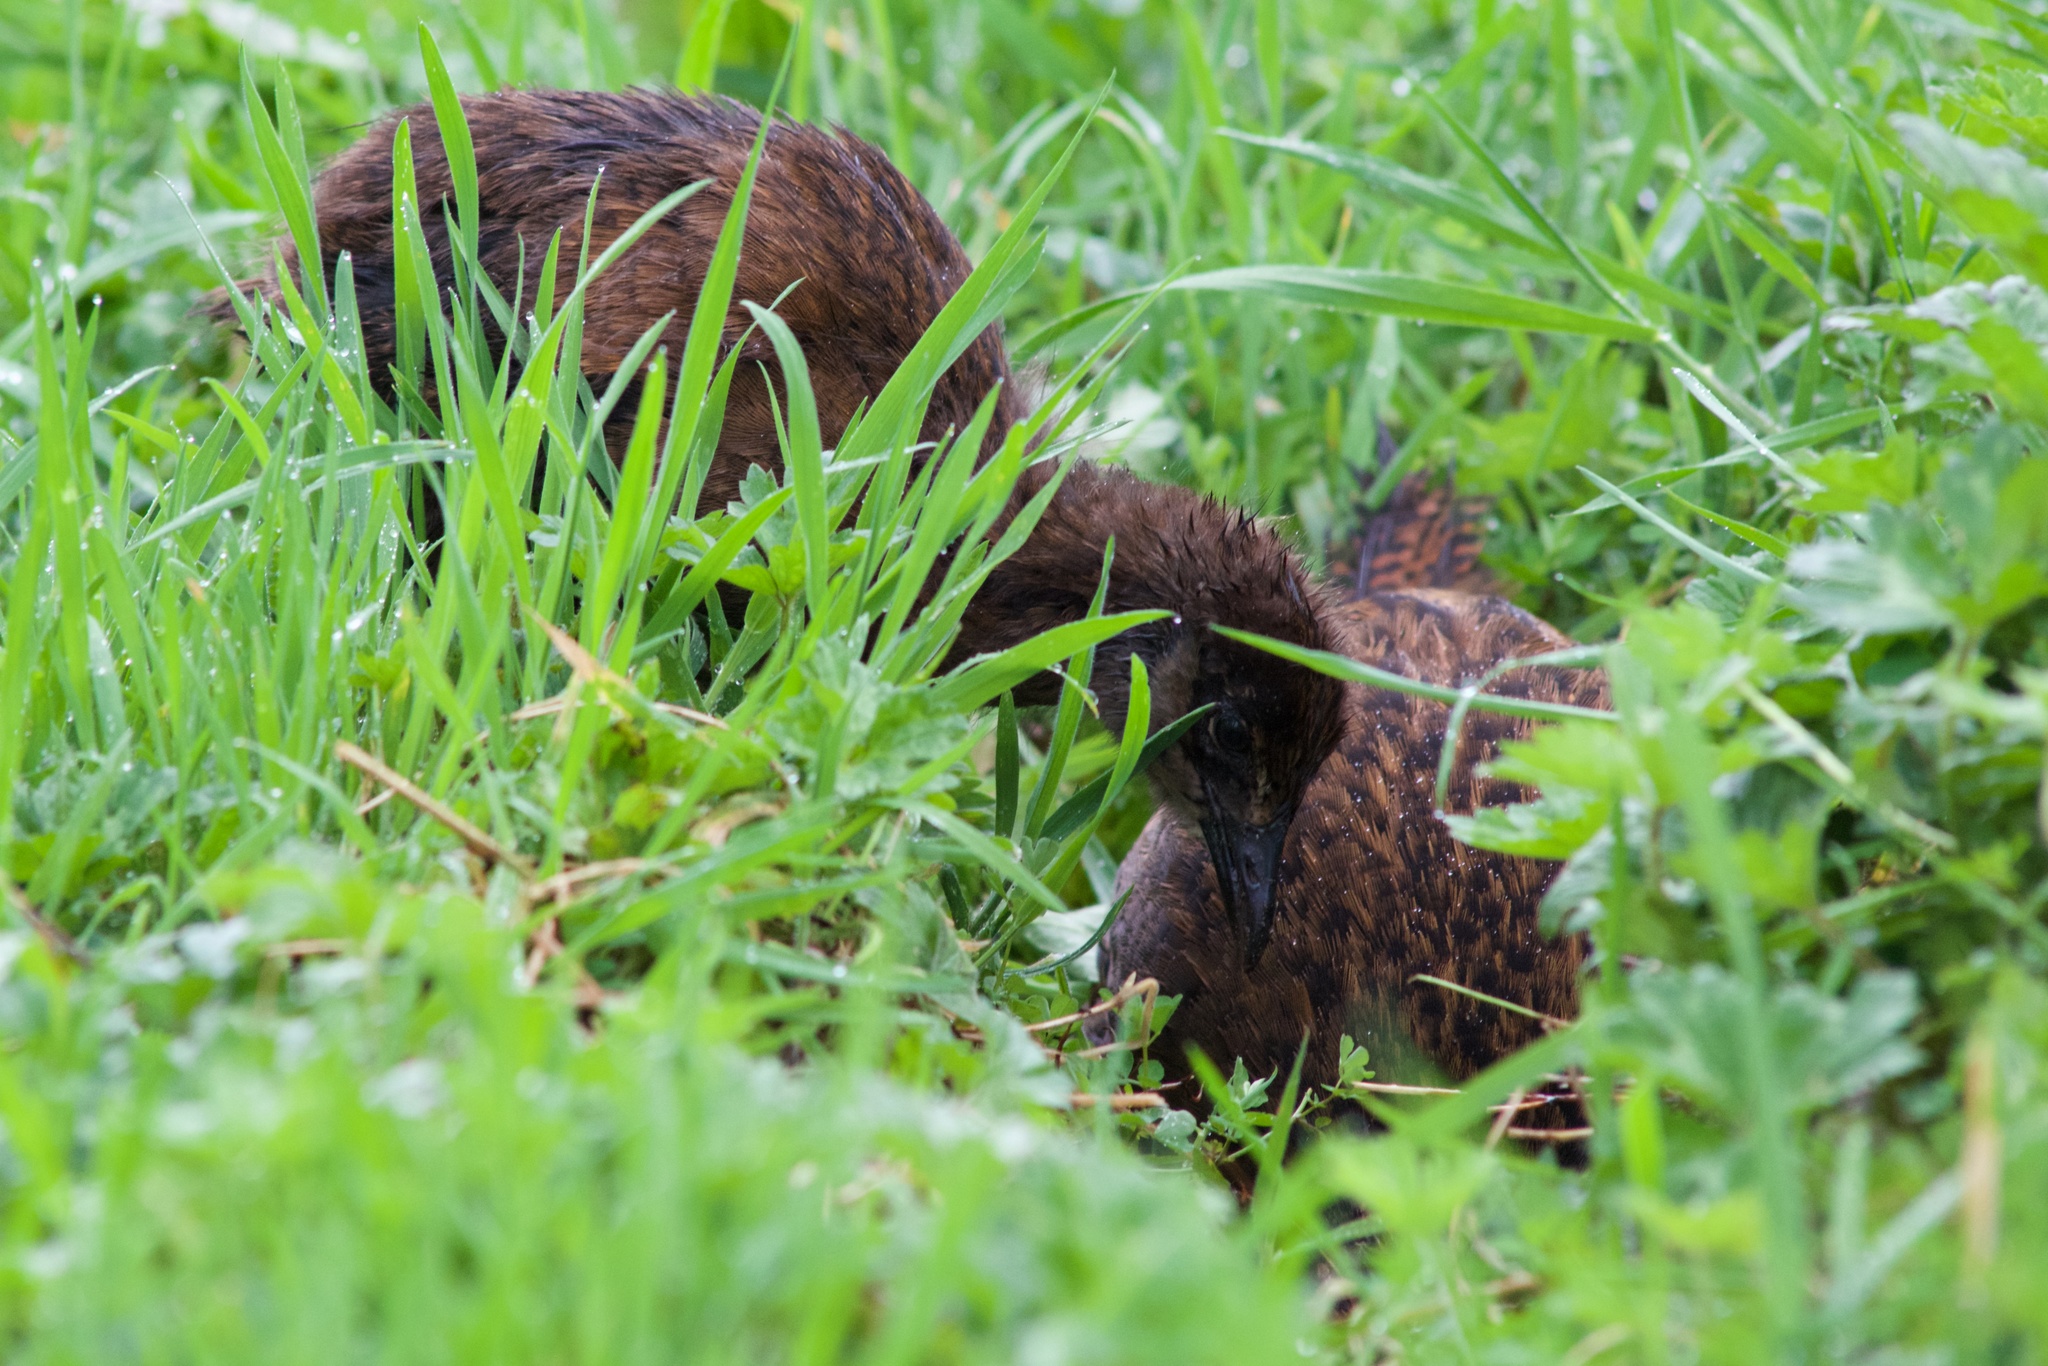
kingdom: Animalia
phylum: Chordata
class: Aves
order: Gruiformes
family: Rallidae
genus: Gallirallus
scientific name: Gallirallus australis
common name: Weka
